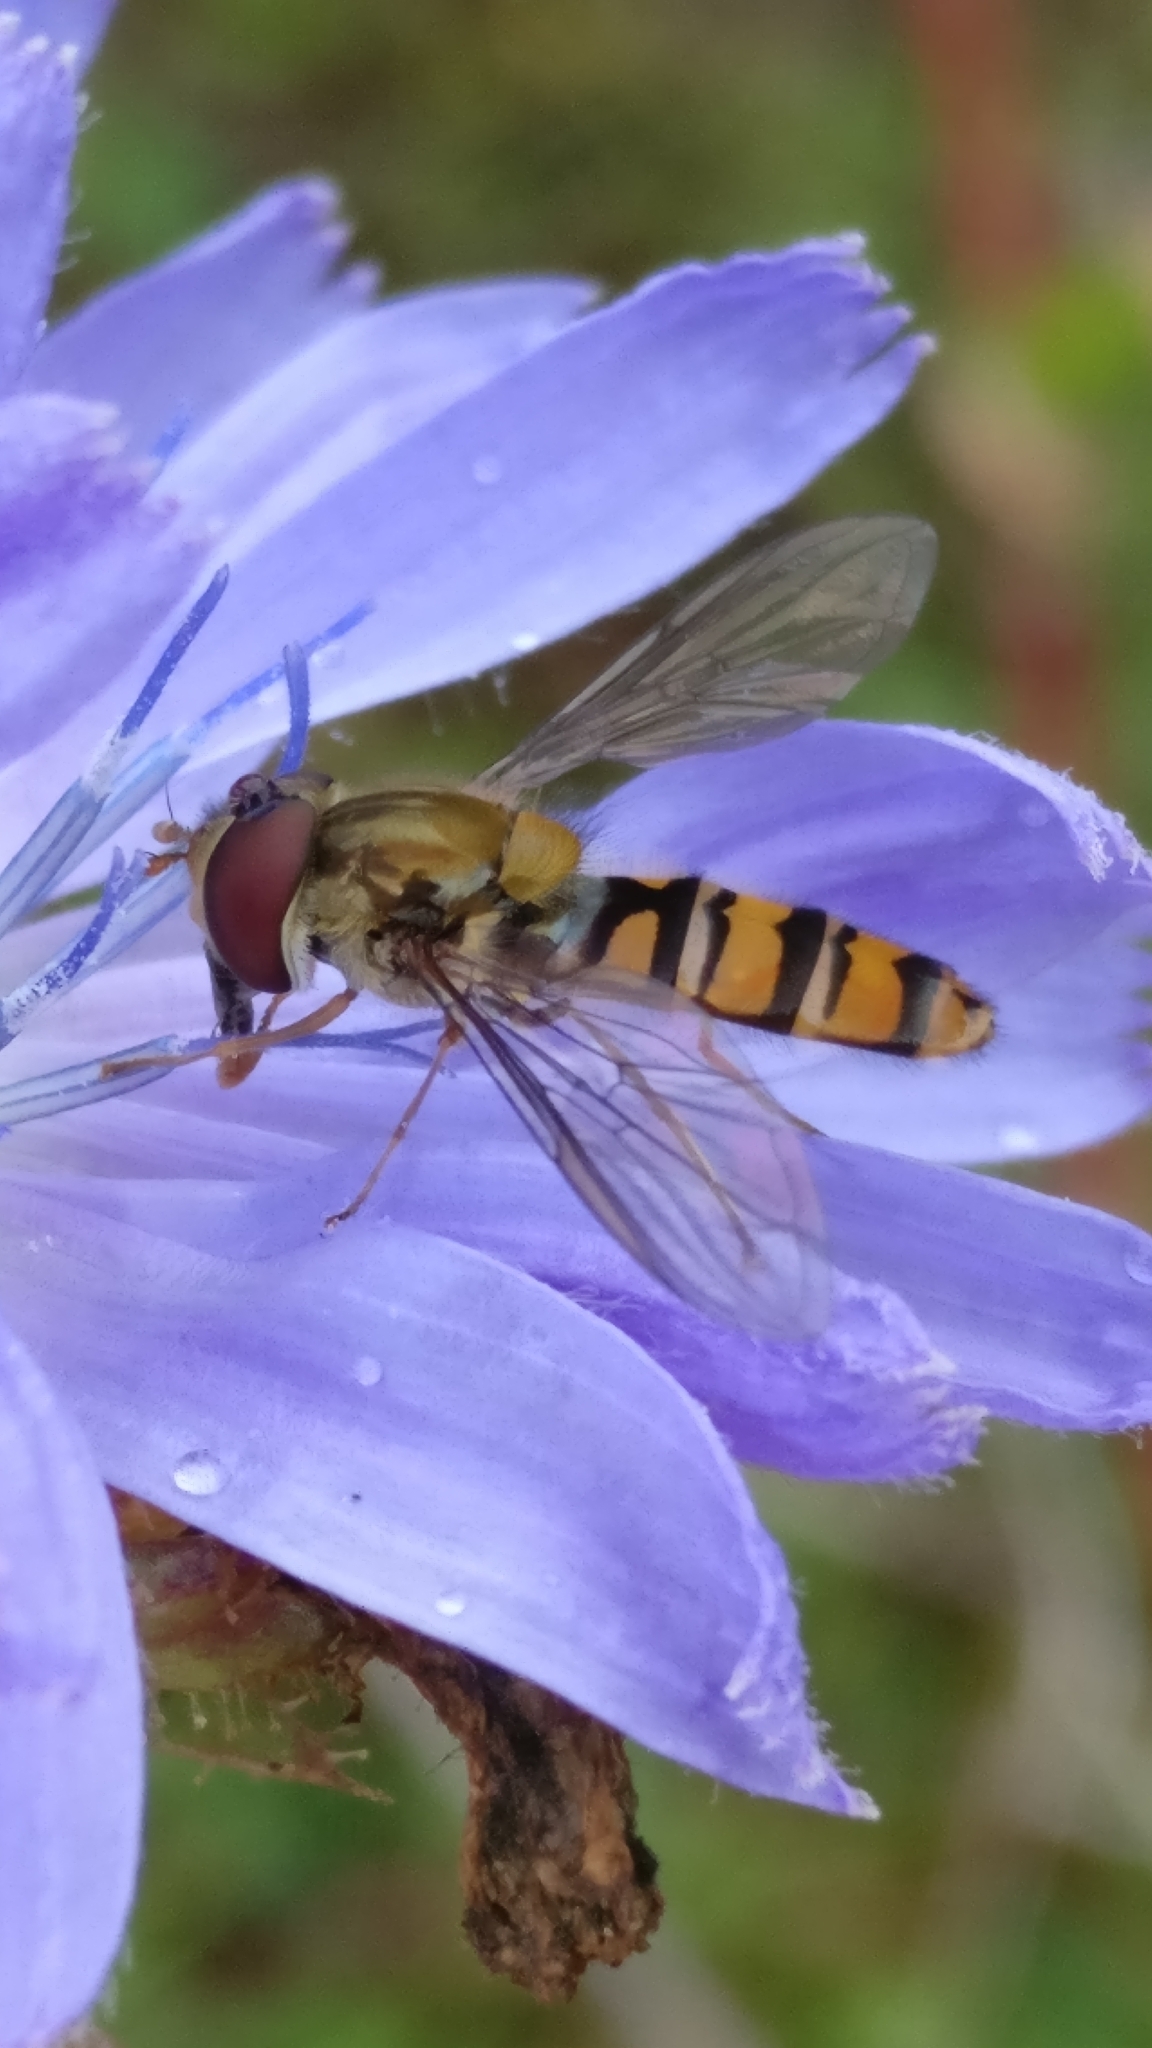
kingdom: Animalia
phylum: Arthropoda
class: Insecta
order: Diptera
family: Syrphidae
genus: Episyrphus
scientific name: Episyrphus balteatus
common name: Marmalade hoverfly
